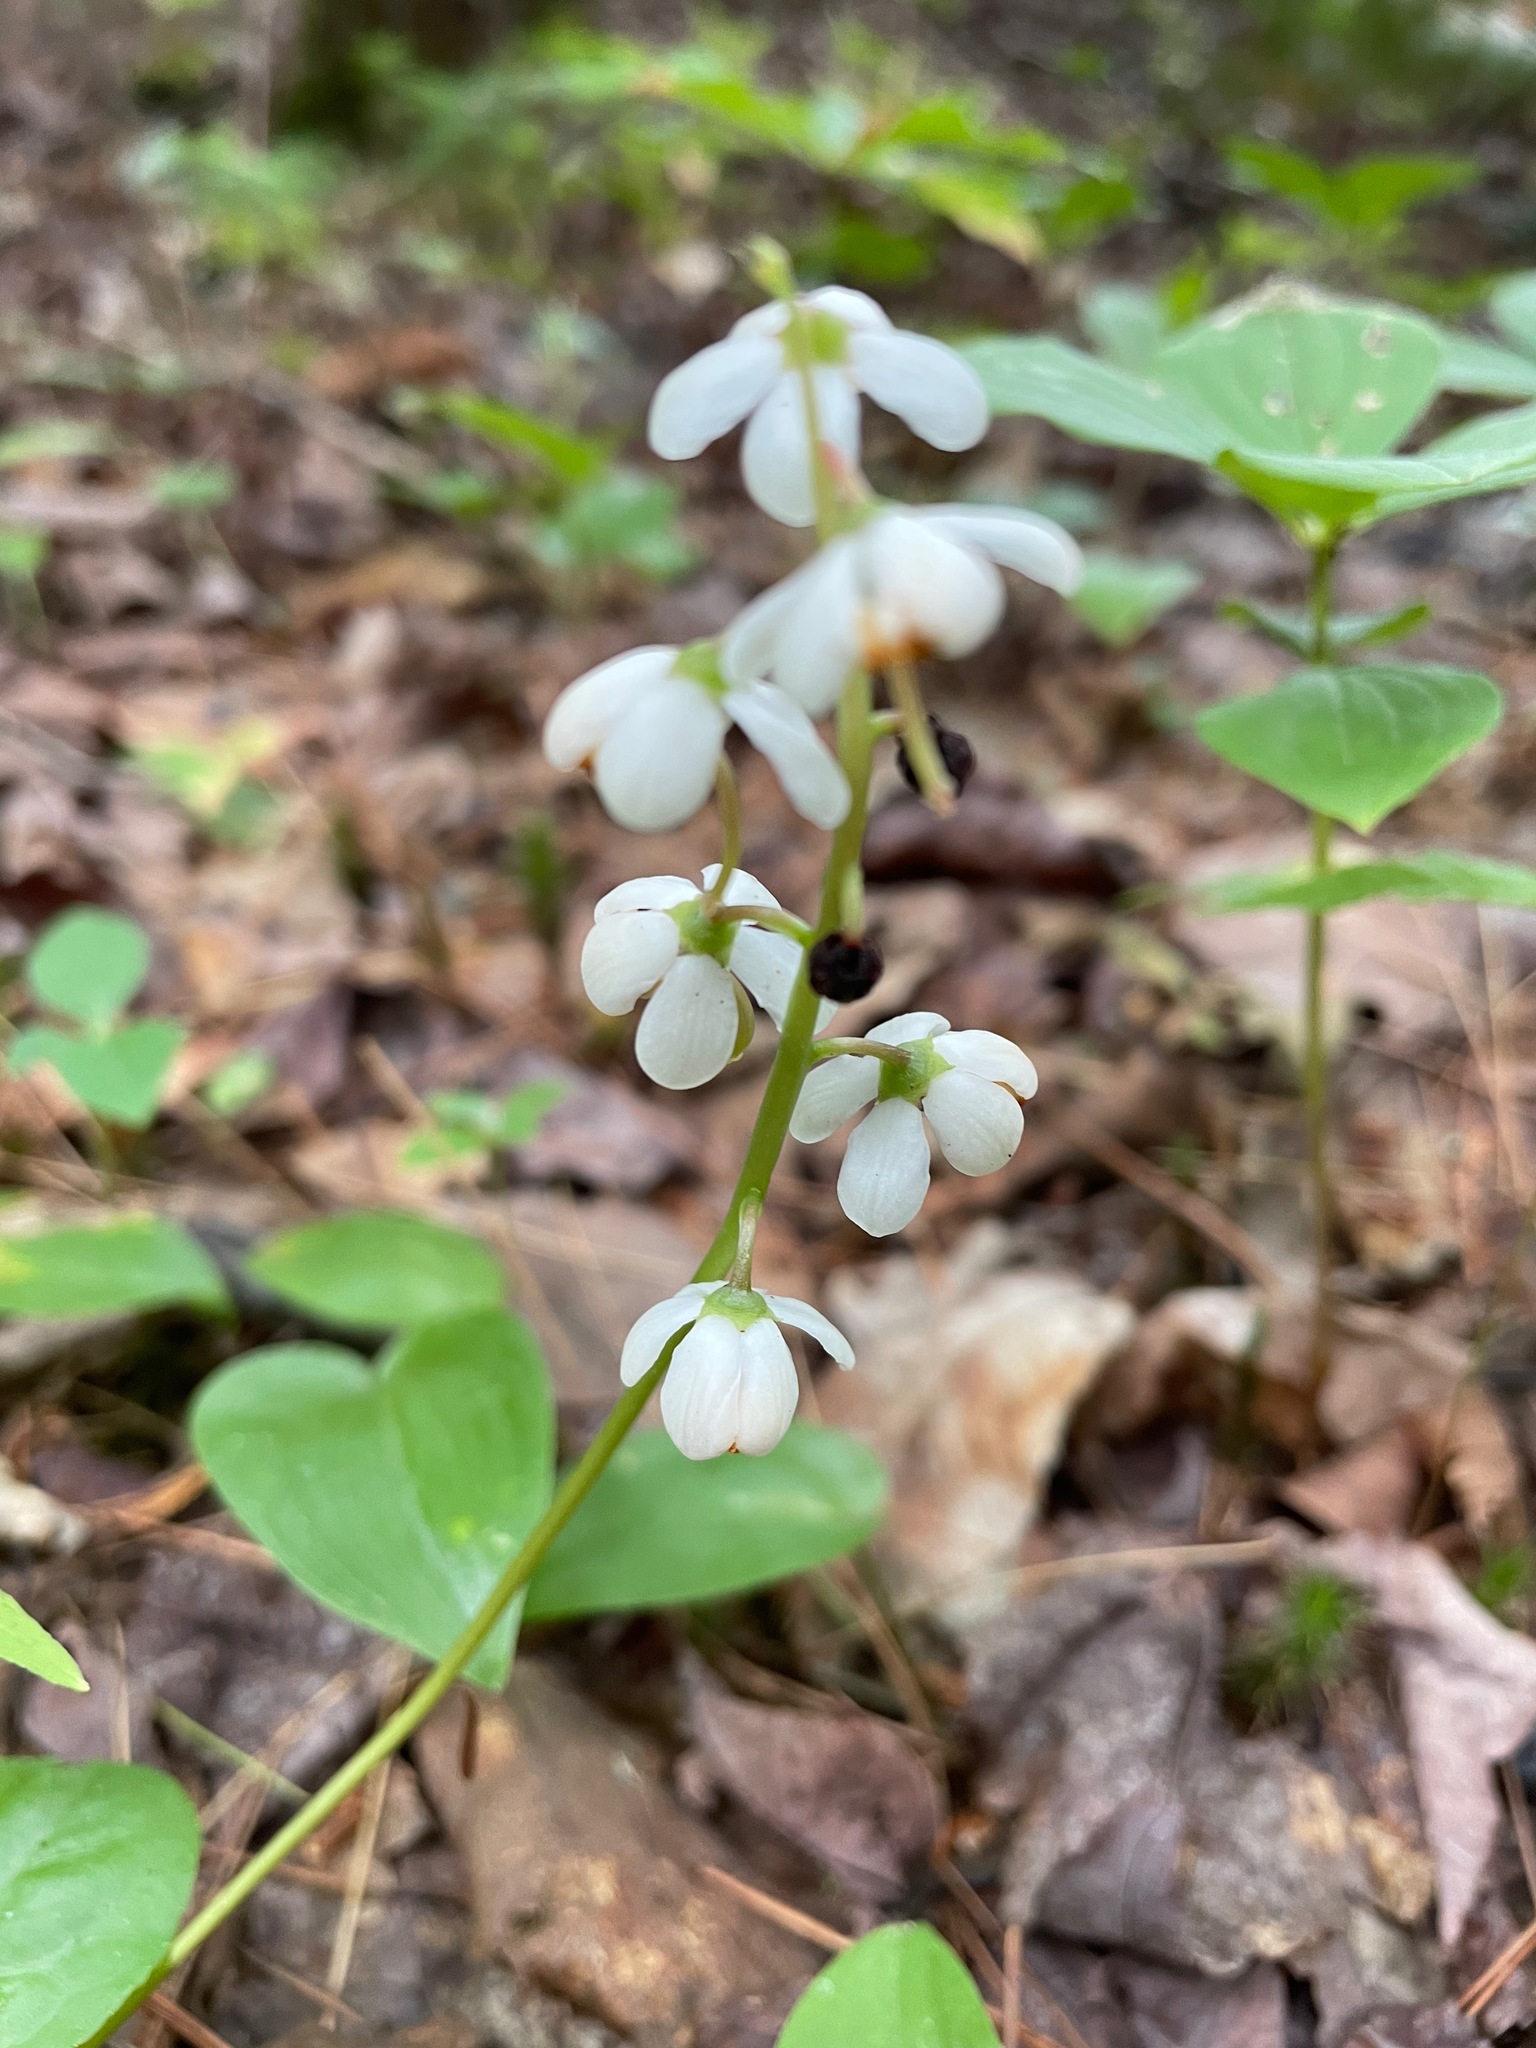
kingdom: Plantae
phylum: Tracheophyta
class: Magnoliopsida
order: Ericales
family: Ericaceae
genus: Pyrola
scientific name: Pyrola elliptica
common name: Shinleaf
